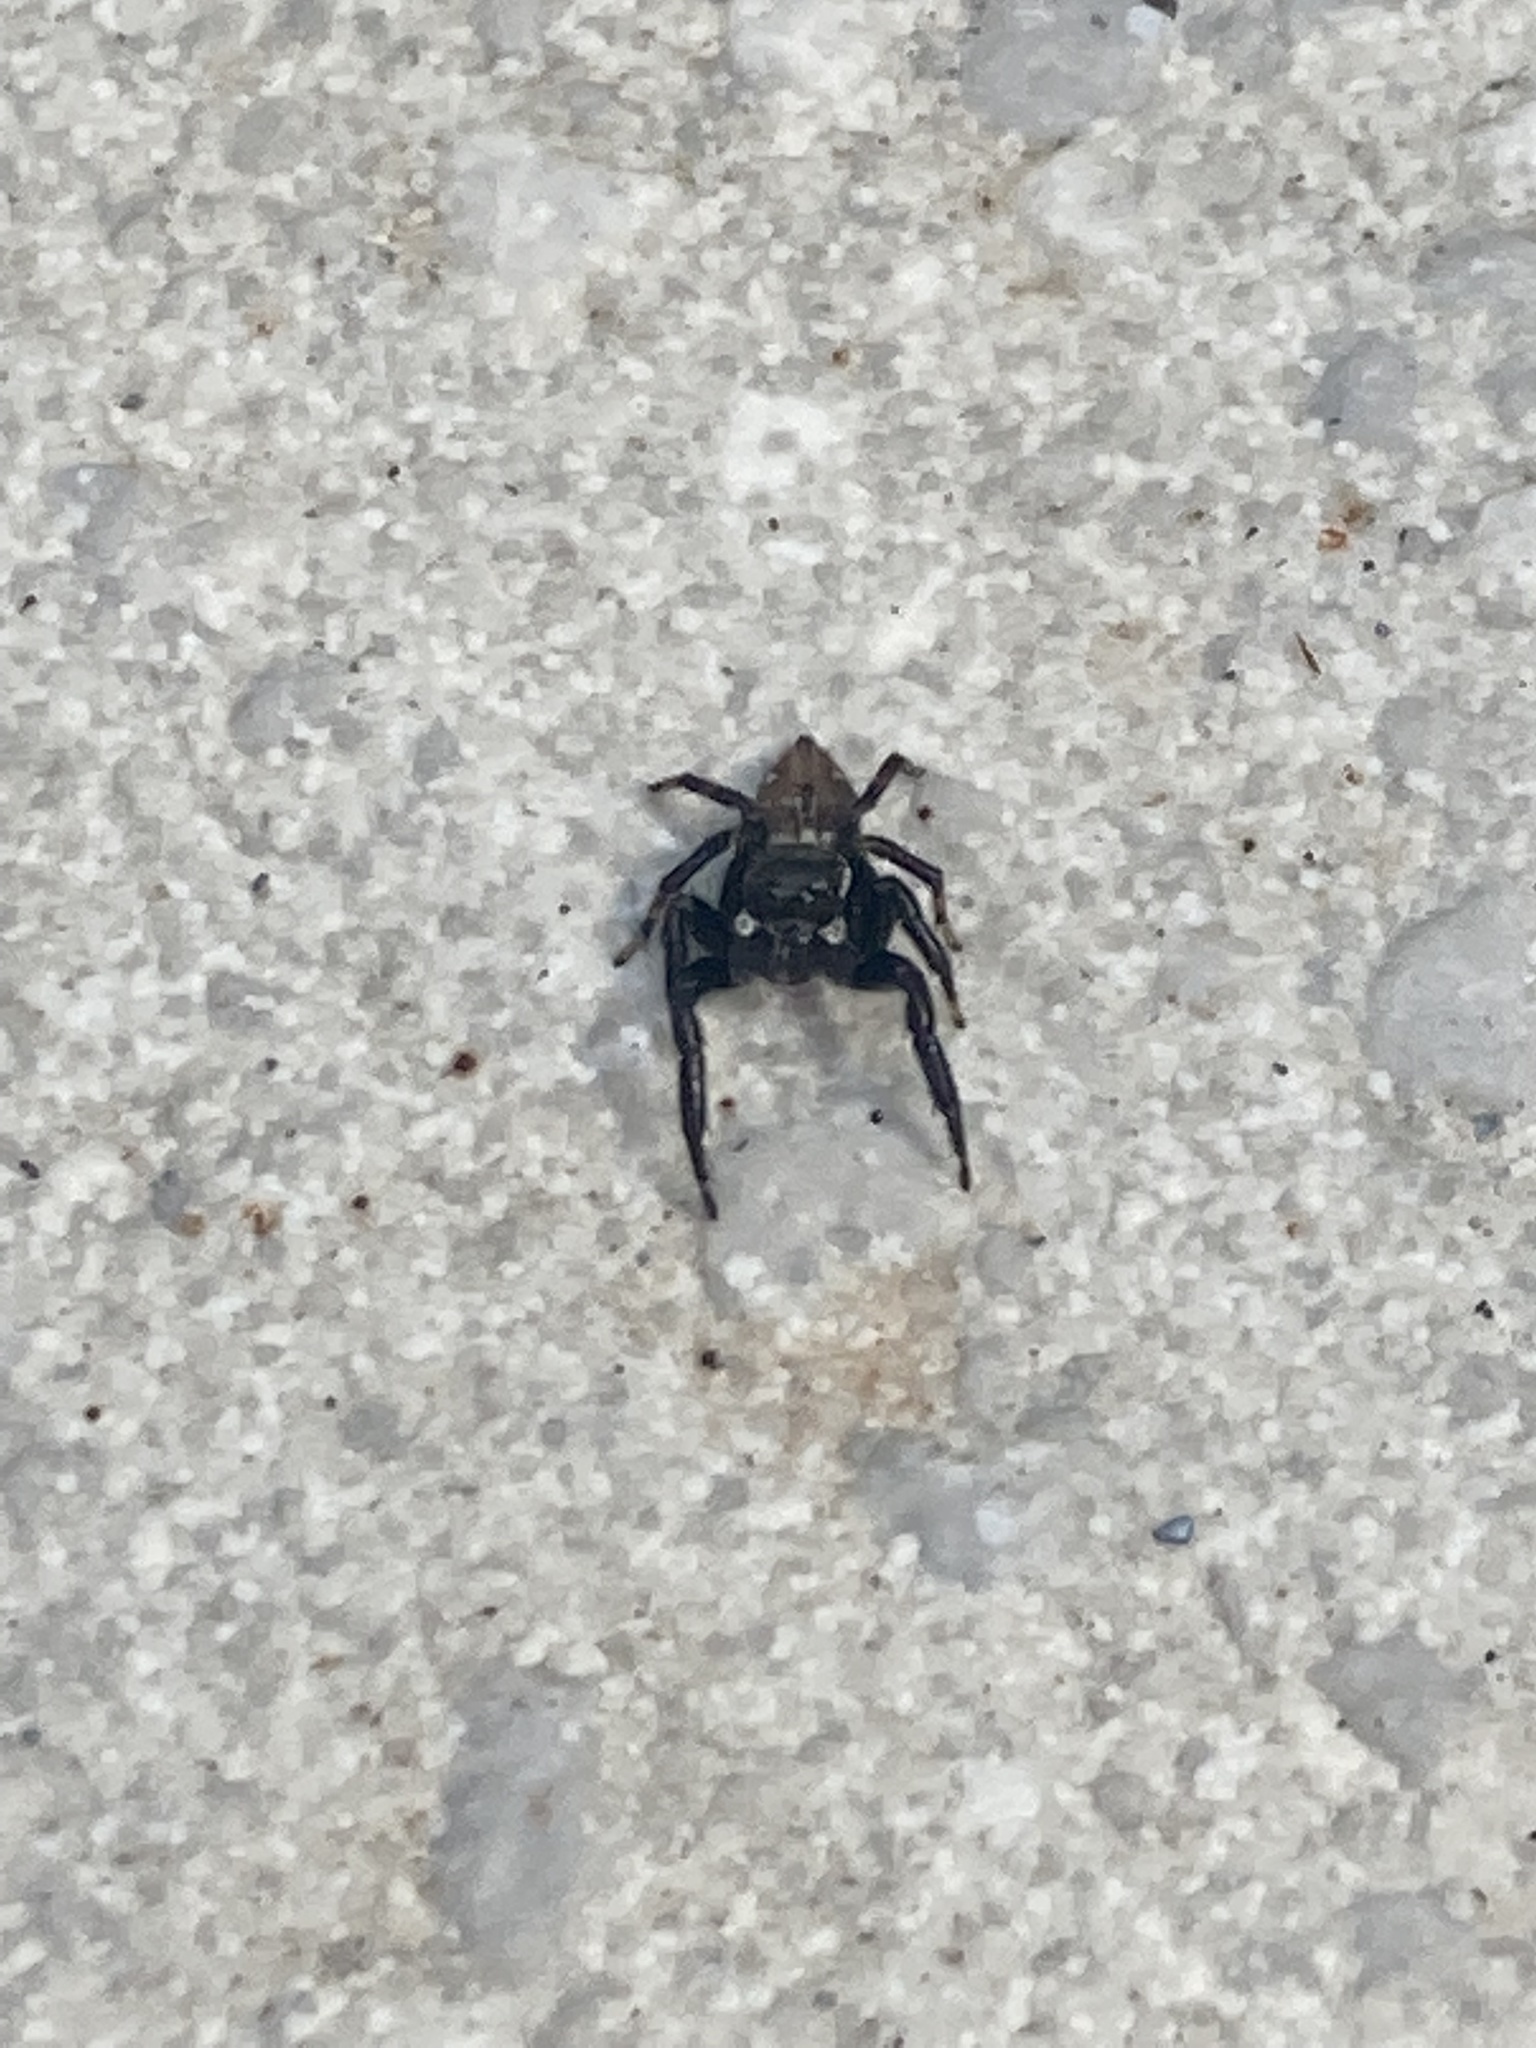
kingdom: Animalia
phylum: Arthropoda
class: Arachnida
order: Araneae
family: Salticidae
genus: Evarcha
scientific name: Evarcha jucunda
